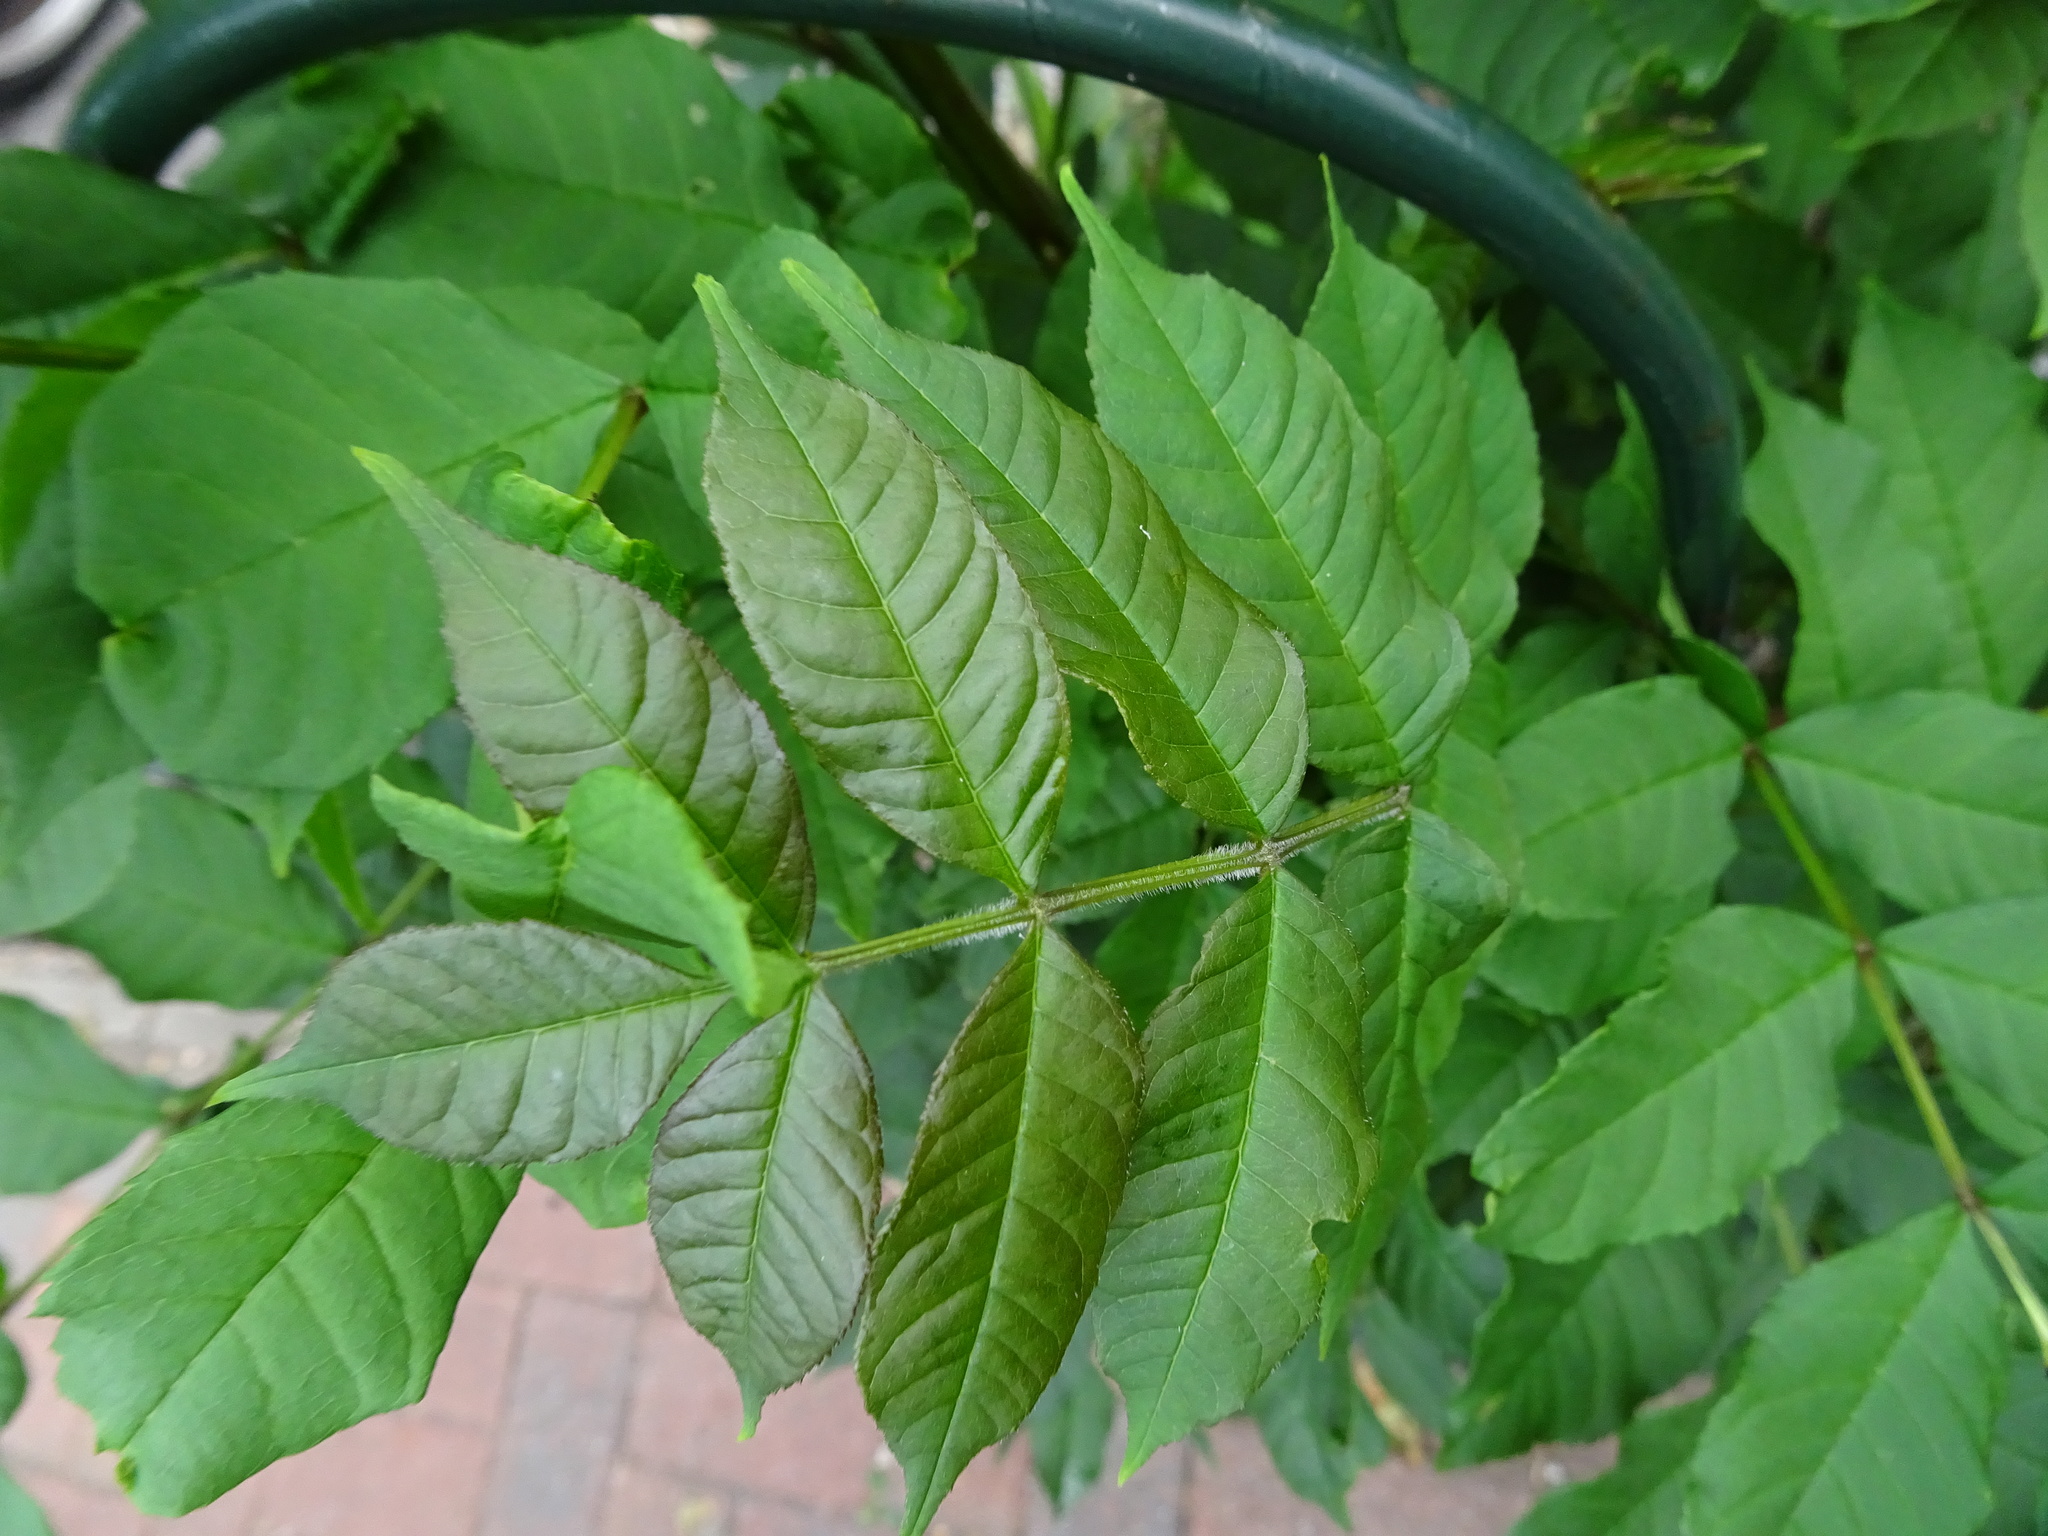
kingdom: Plantae
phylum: Tracheophyta
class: Magnoliopsida
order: Lamiales
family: Oleaceae
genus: Fraxinus
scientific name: Fraxinus excelsior
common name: European ash
